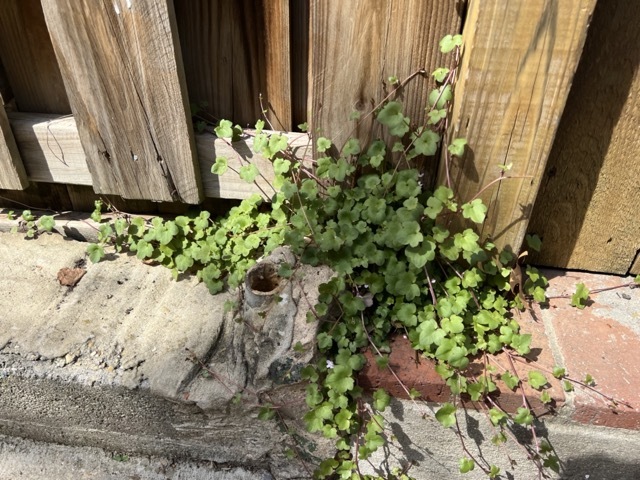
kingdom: Plantae
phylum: Tracheophyta
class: Magnoliopsida
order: Lamiales
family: Plantaginaceae
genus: Cymbalaria
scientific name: Cymbalaria muralis
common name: Ivy-leaved toadflax
